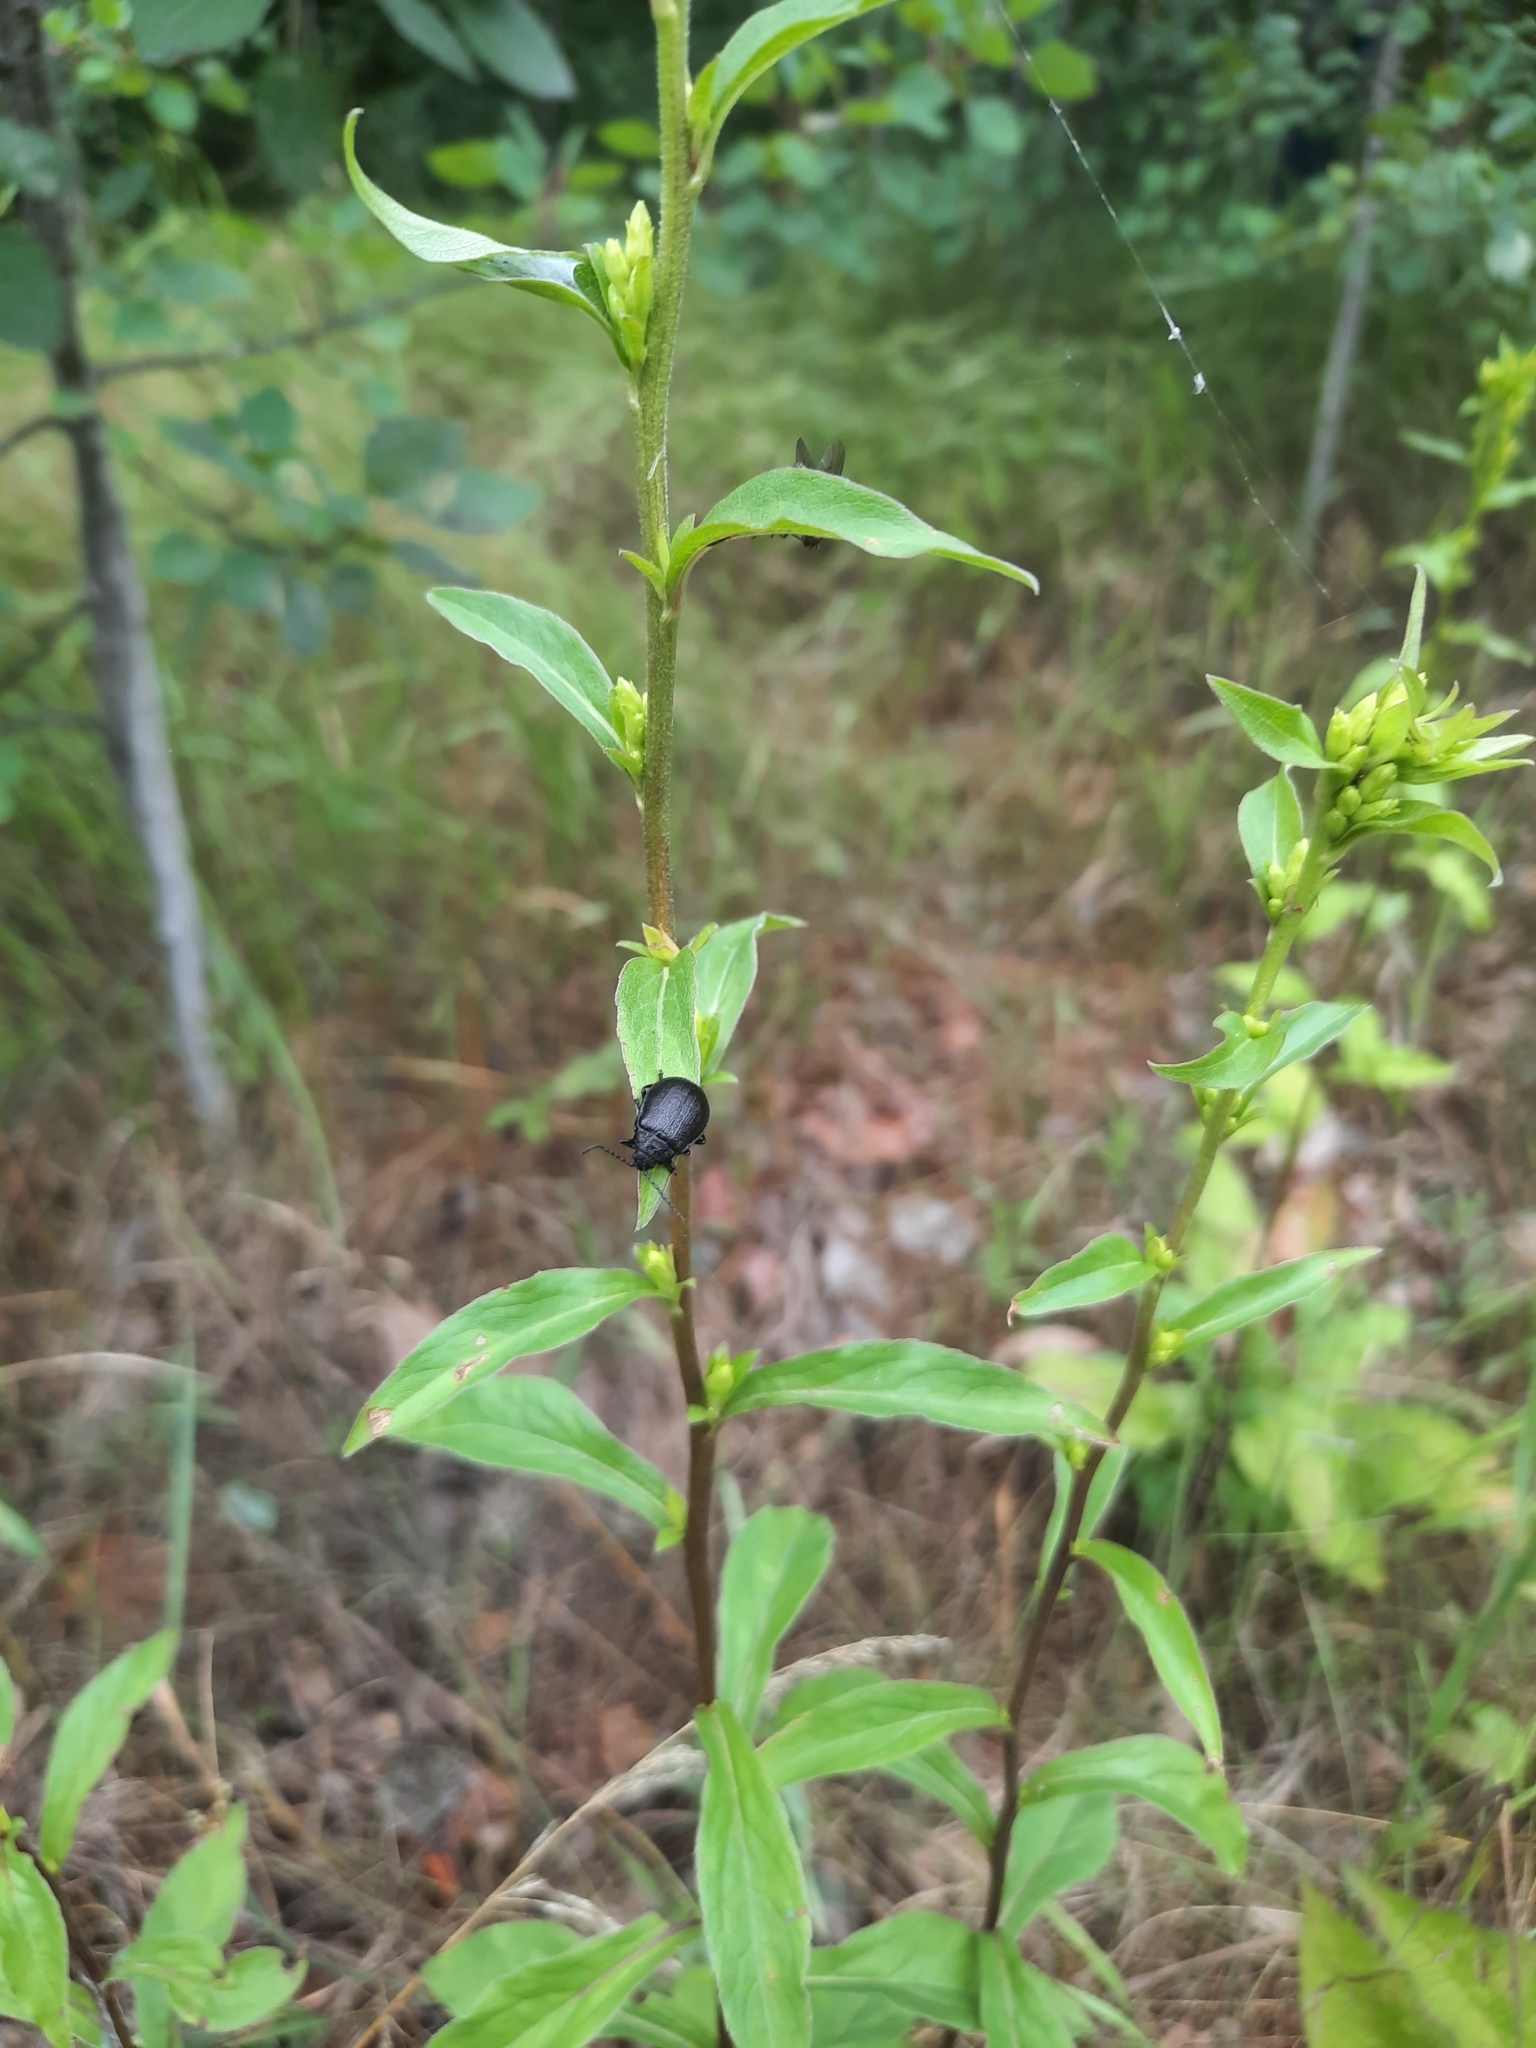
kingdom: Animalia
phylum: Arthropoda
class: Insecta
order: Coleoptera
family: Chrysomelidae
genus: Galeruca
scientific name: Galeruca tanaceti
